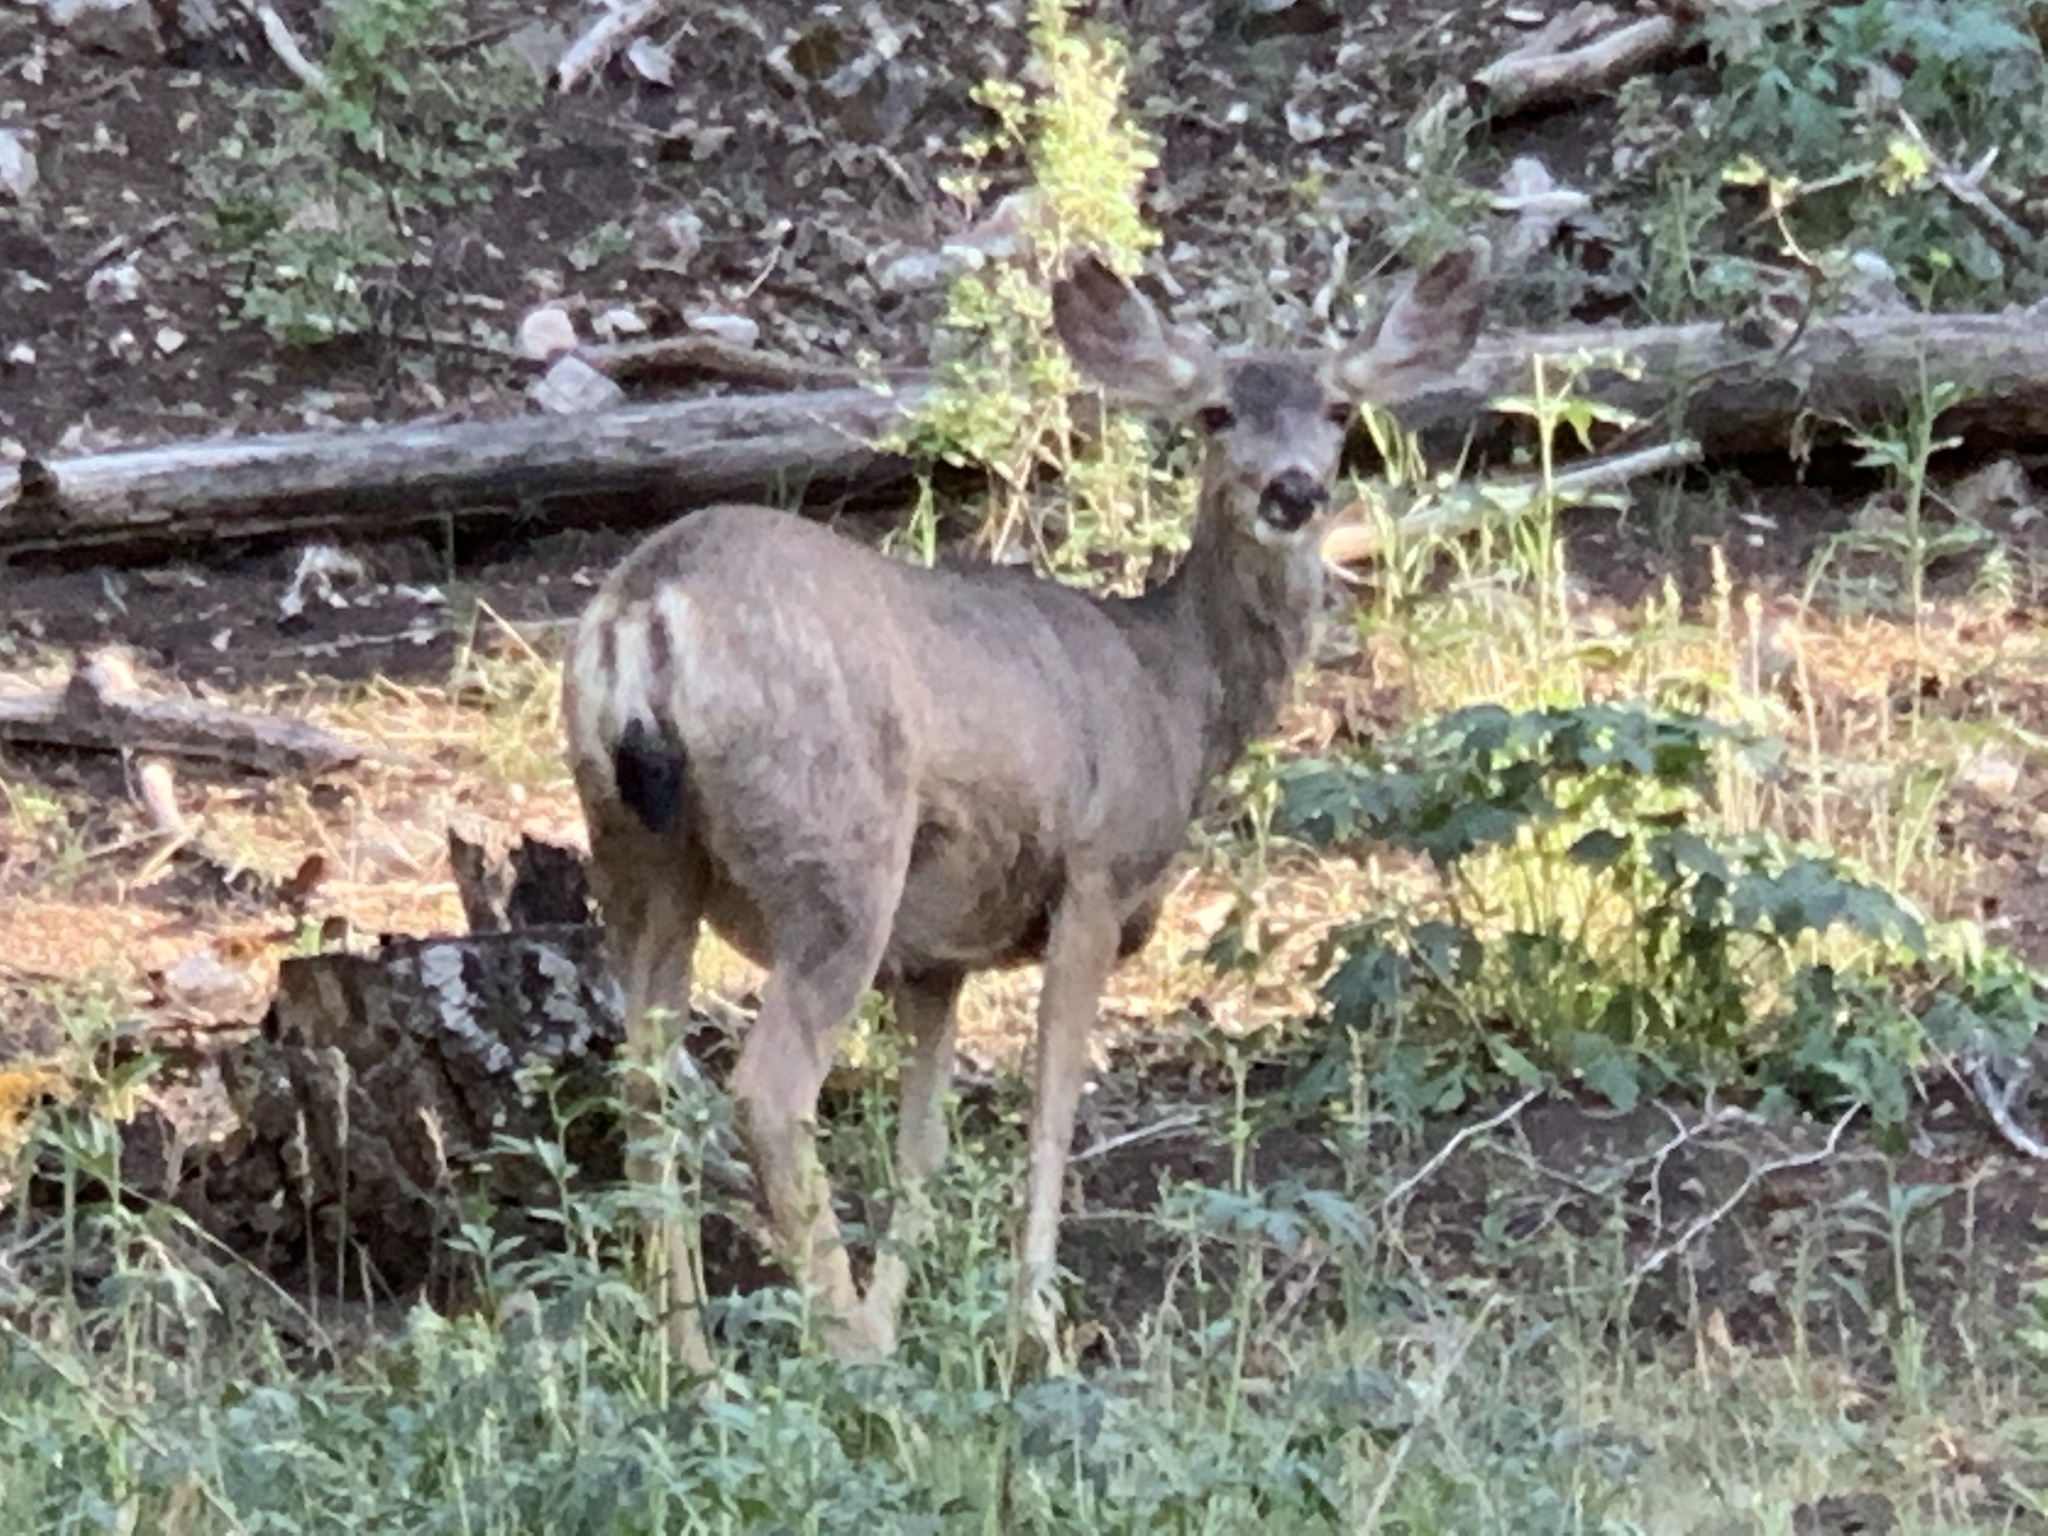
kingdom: Animalia
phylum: Chordata
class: Mammalia
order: Artiodactyla
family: Cervidae
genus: Odocoileus
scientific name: Odocoileus hemionus
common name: Mule deer
